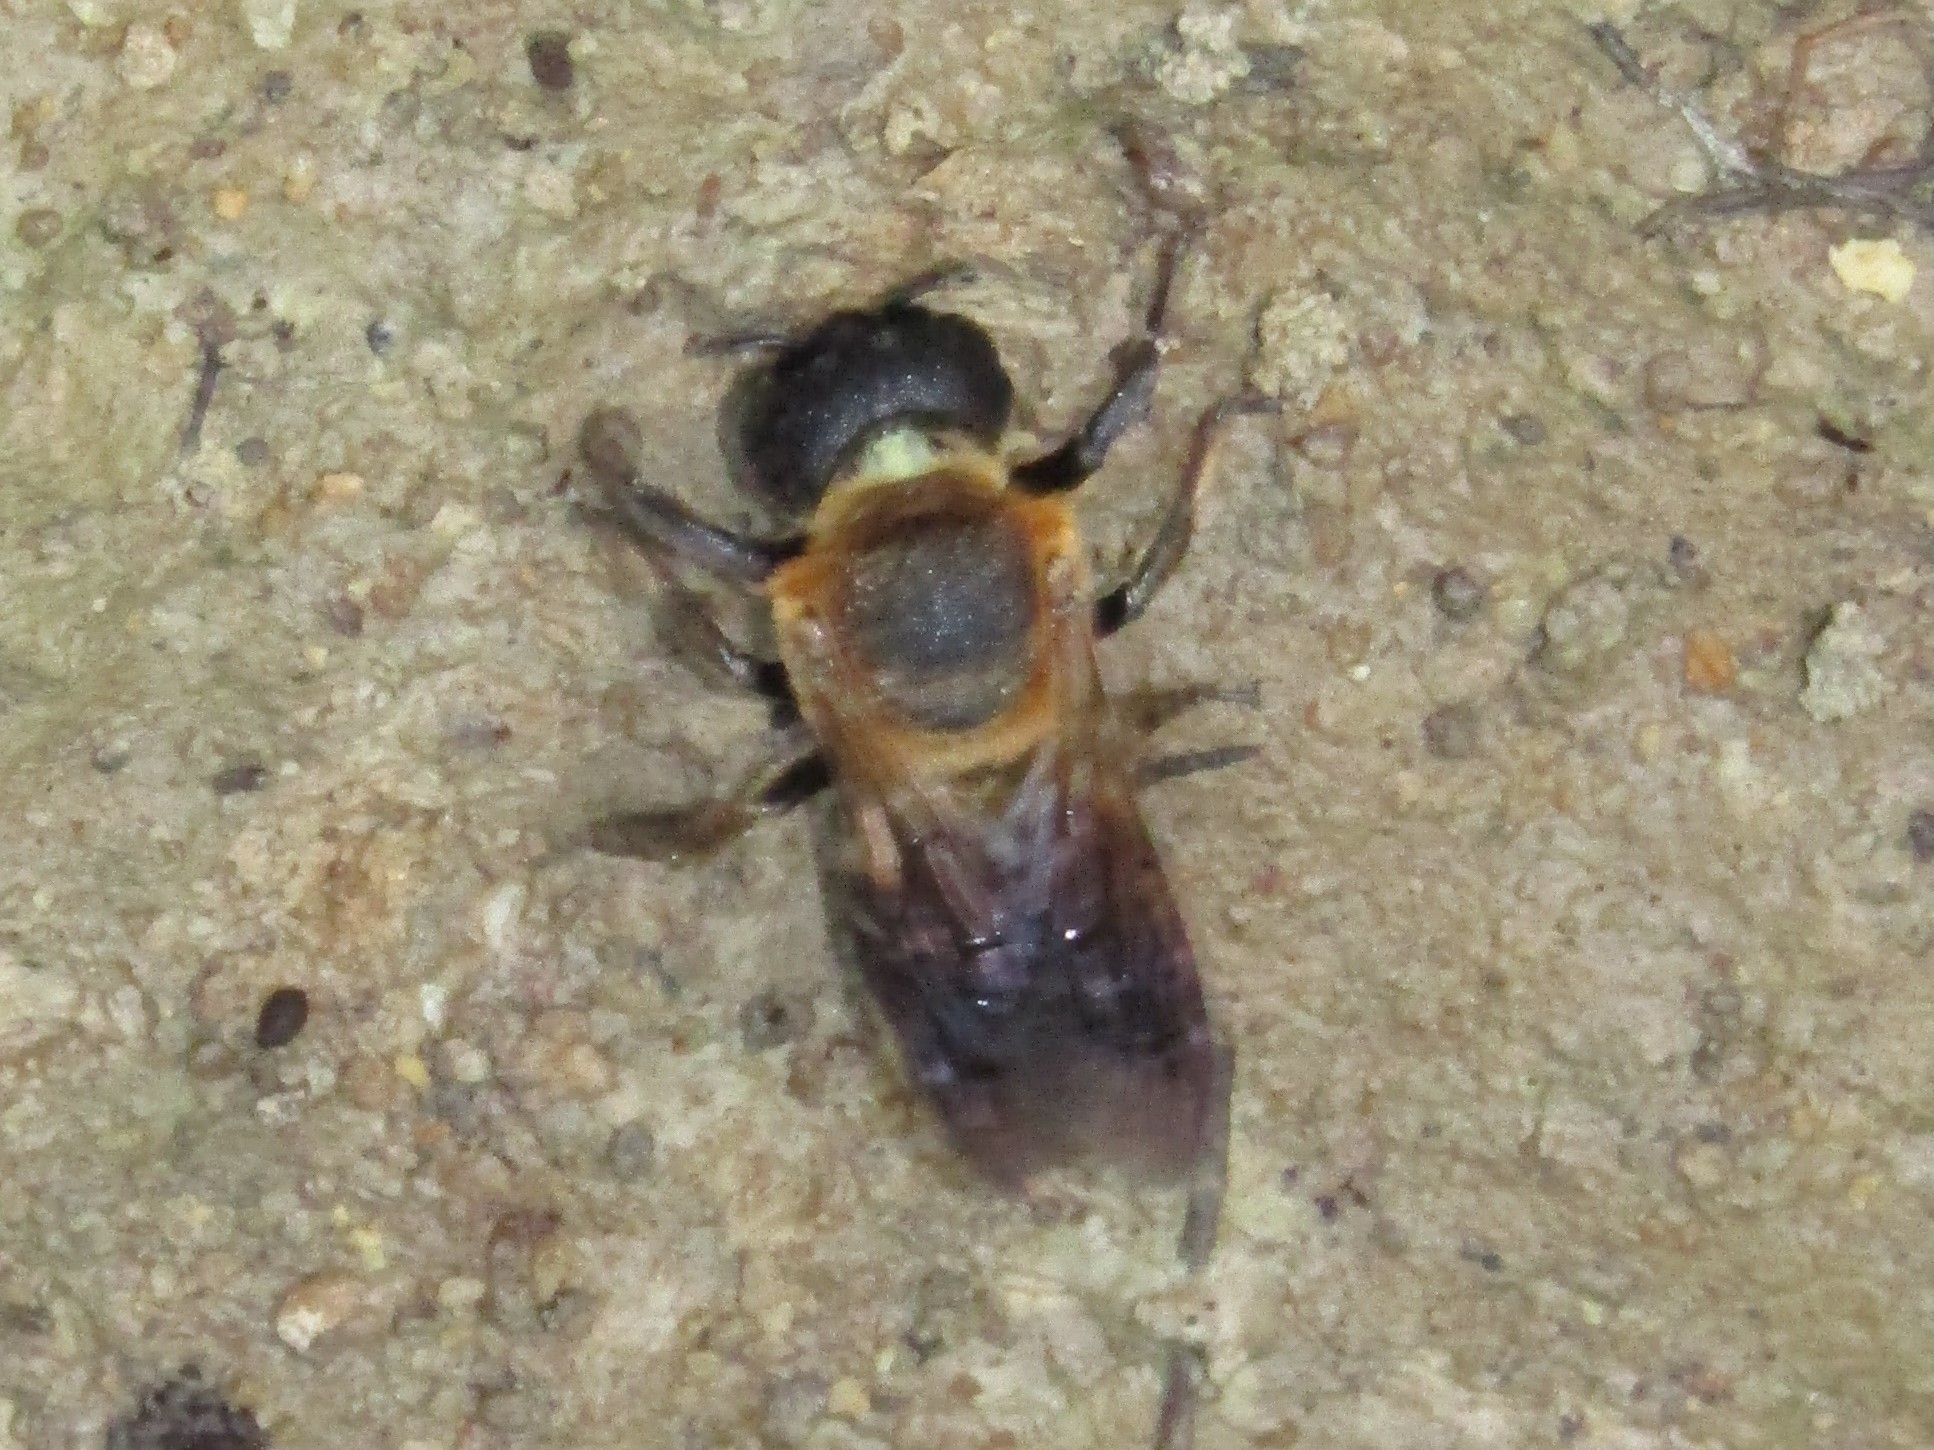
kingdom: Animalia
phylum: Arthropoda
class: Insecta
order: Hymenoptera
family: Megachilidae
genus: Megachile
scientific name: Megachile sculpturalis
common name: Sculptured resin bee
